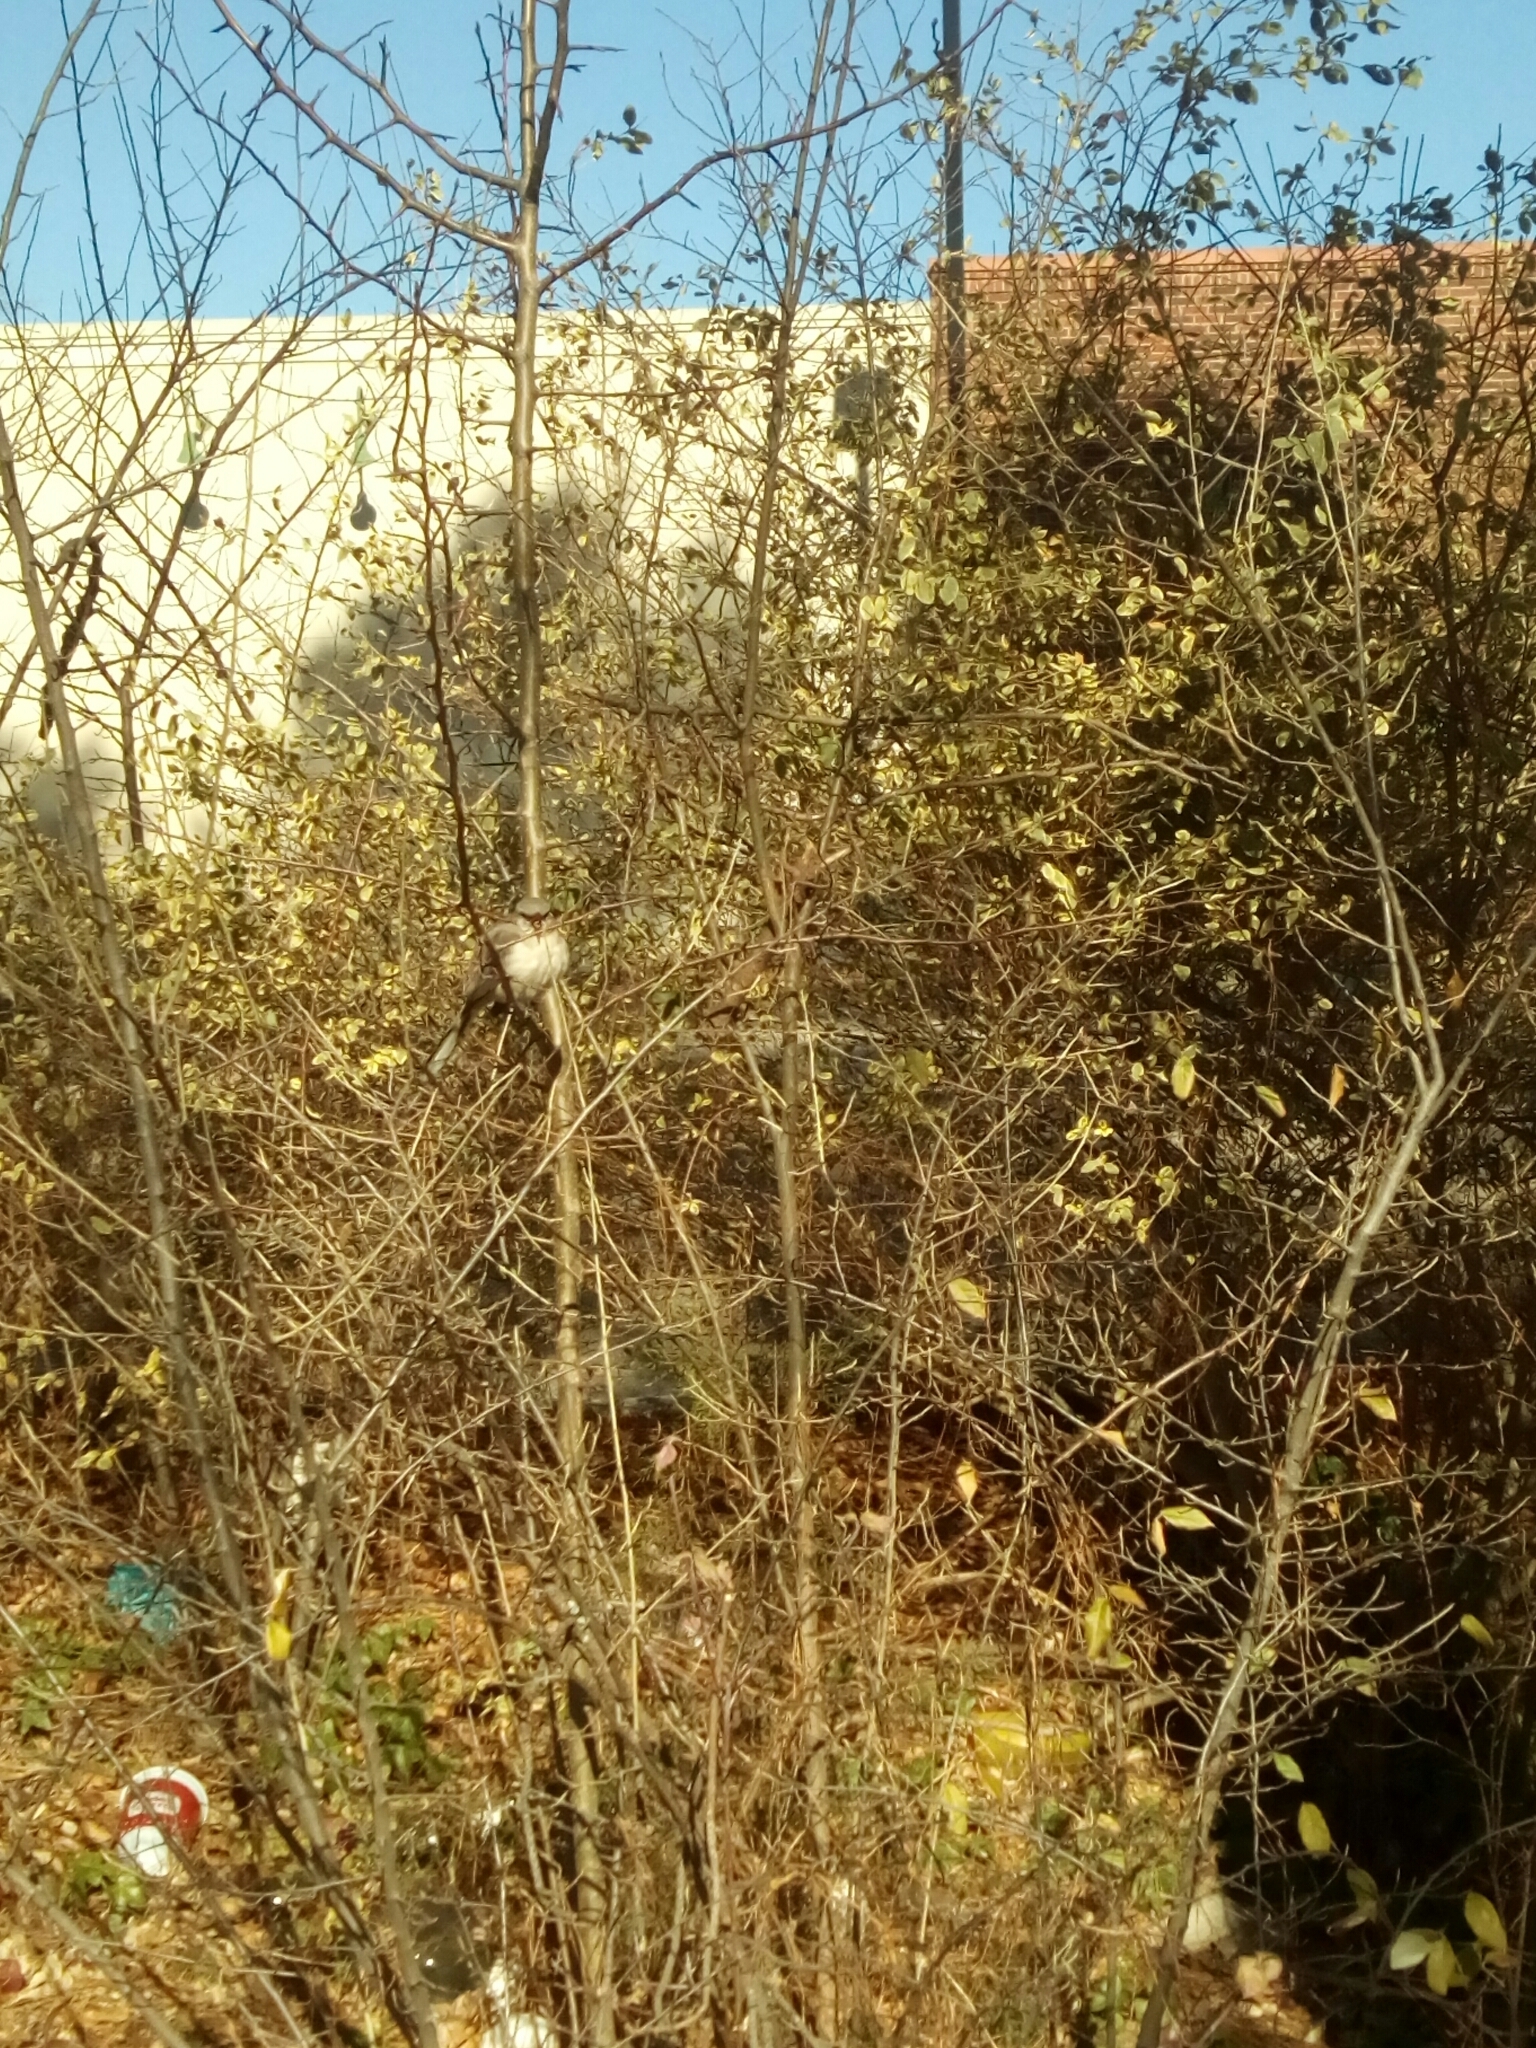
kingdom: Animalia
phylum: Chordata
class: Aves
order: Passeriformes
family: Mimidae
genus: Mimus
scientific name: Mimus polyglottos
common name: Northern mockingbird
